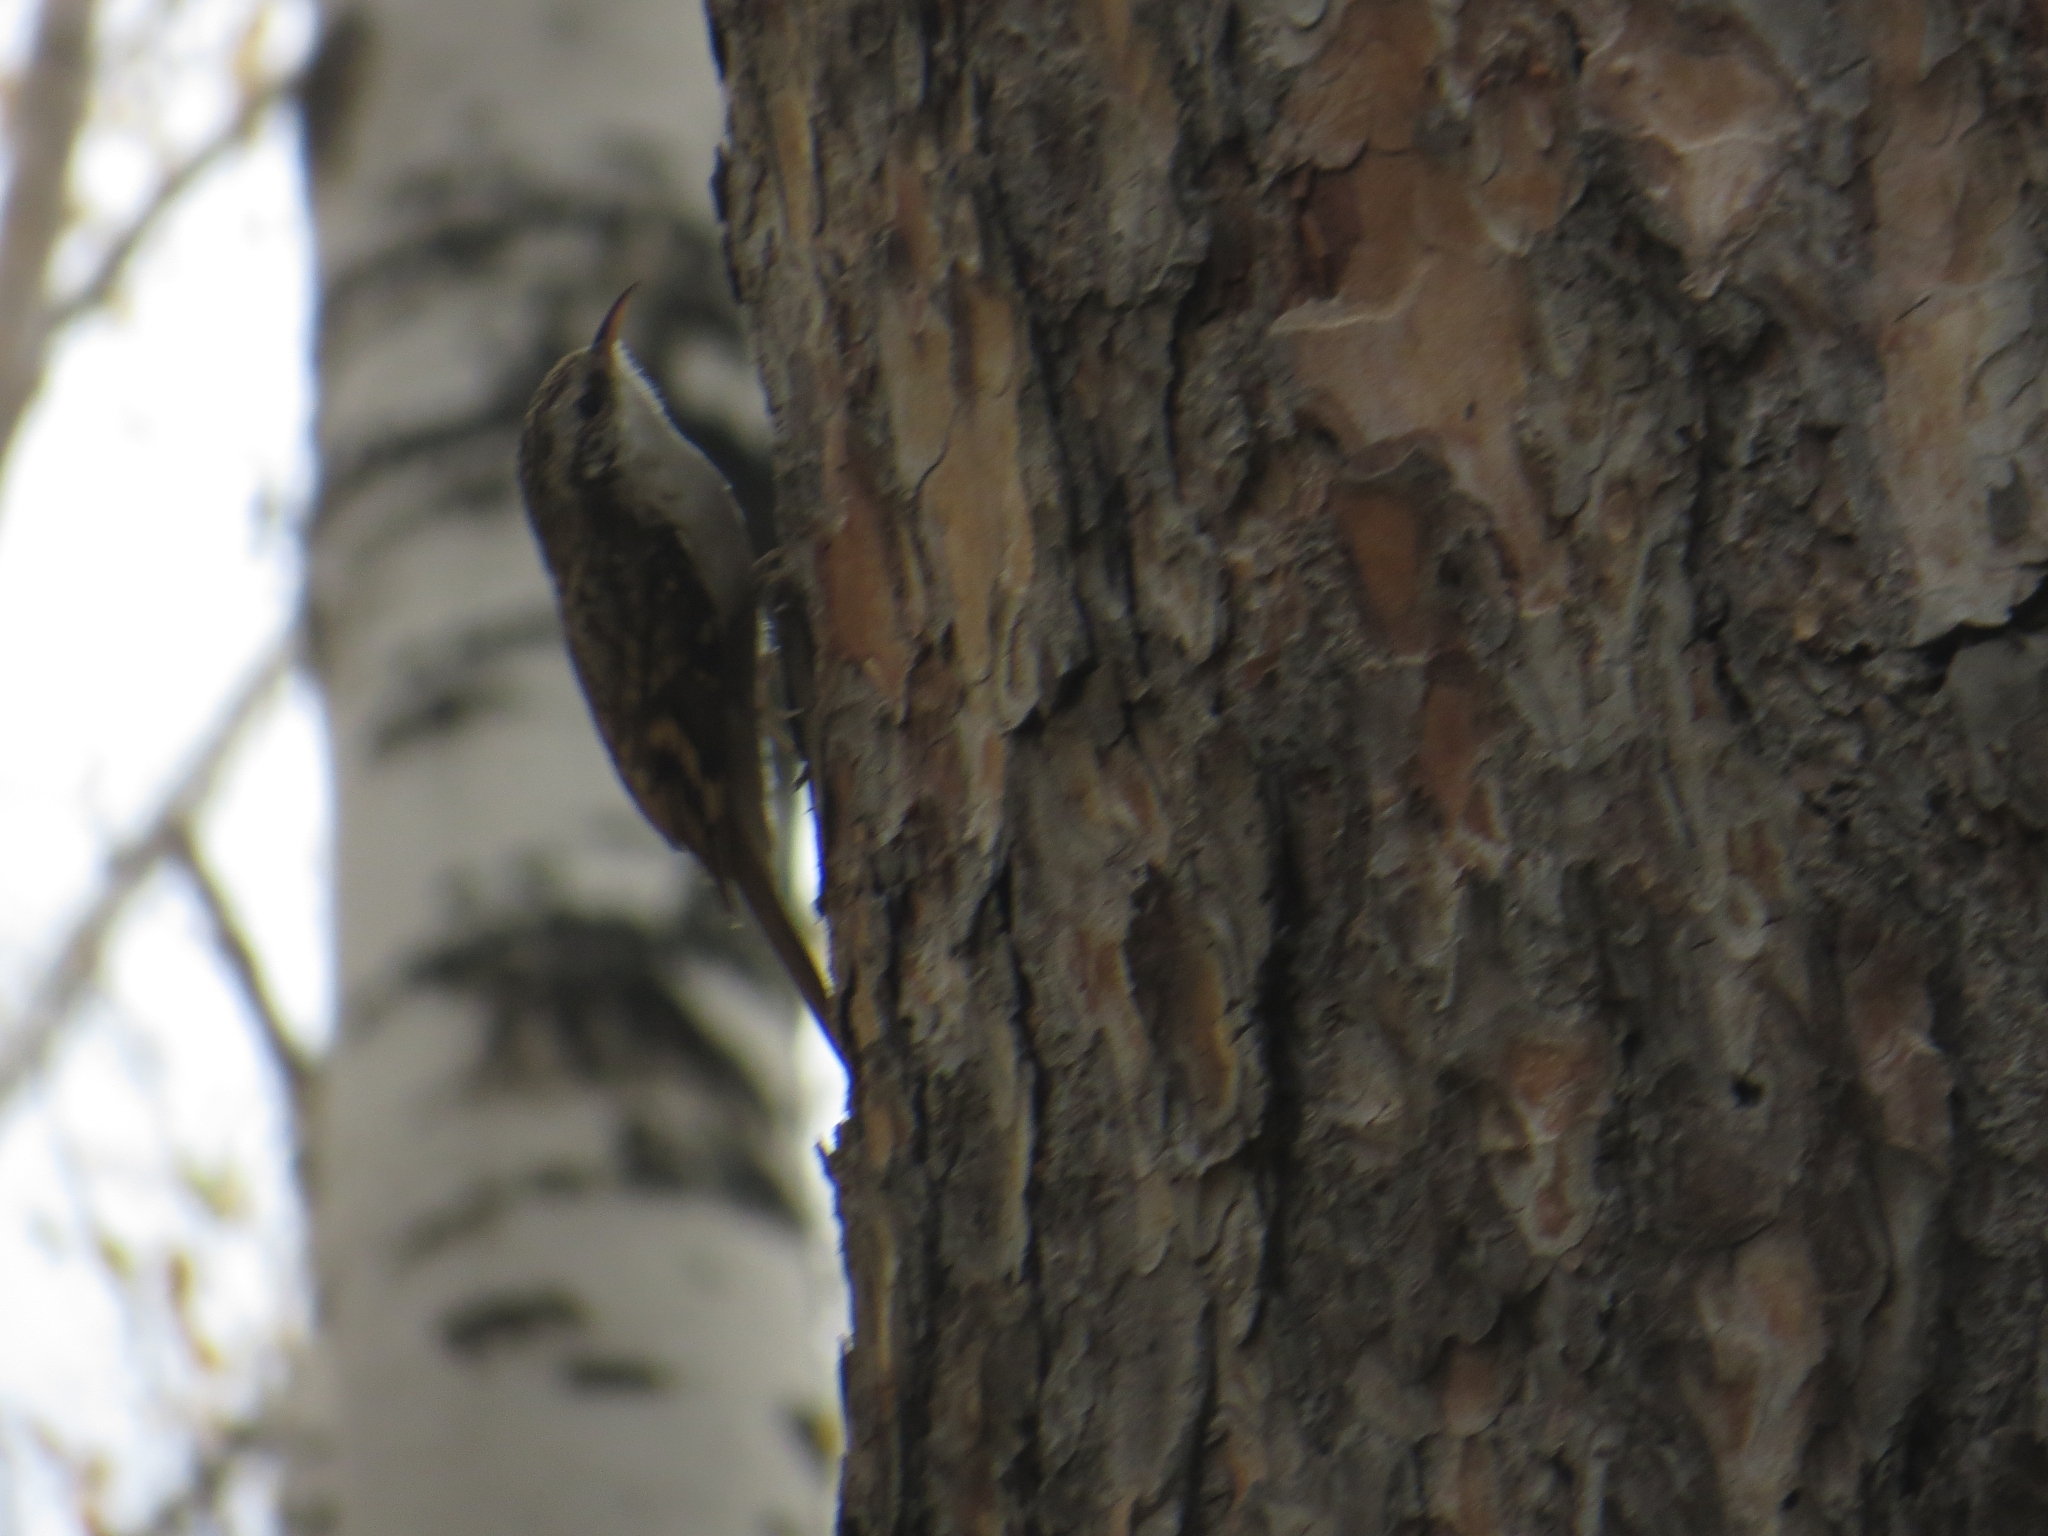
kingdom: Animalia
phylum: Chordata
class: Aves
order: Passeriformes
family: Certhiidae
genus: Certhia
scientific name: Certhia familiaris
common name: Eurasian treecreeper
